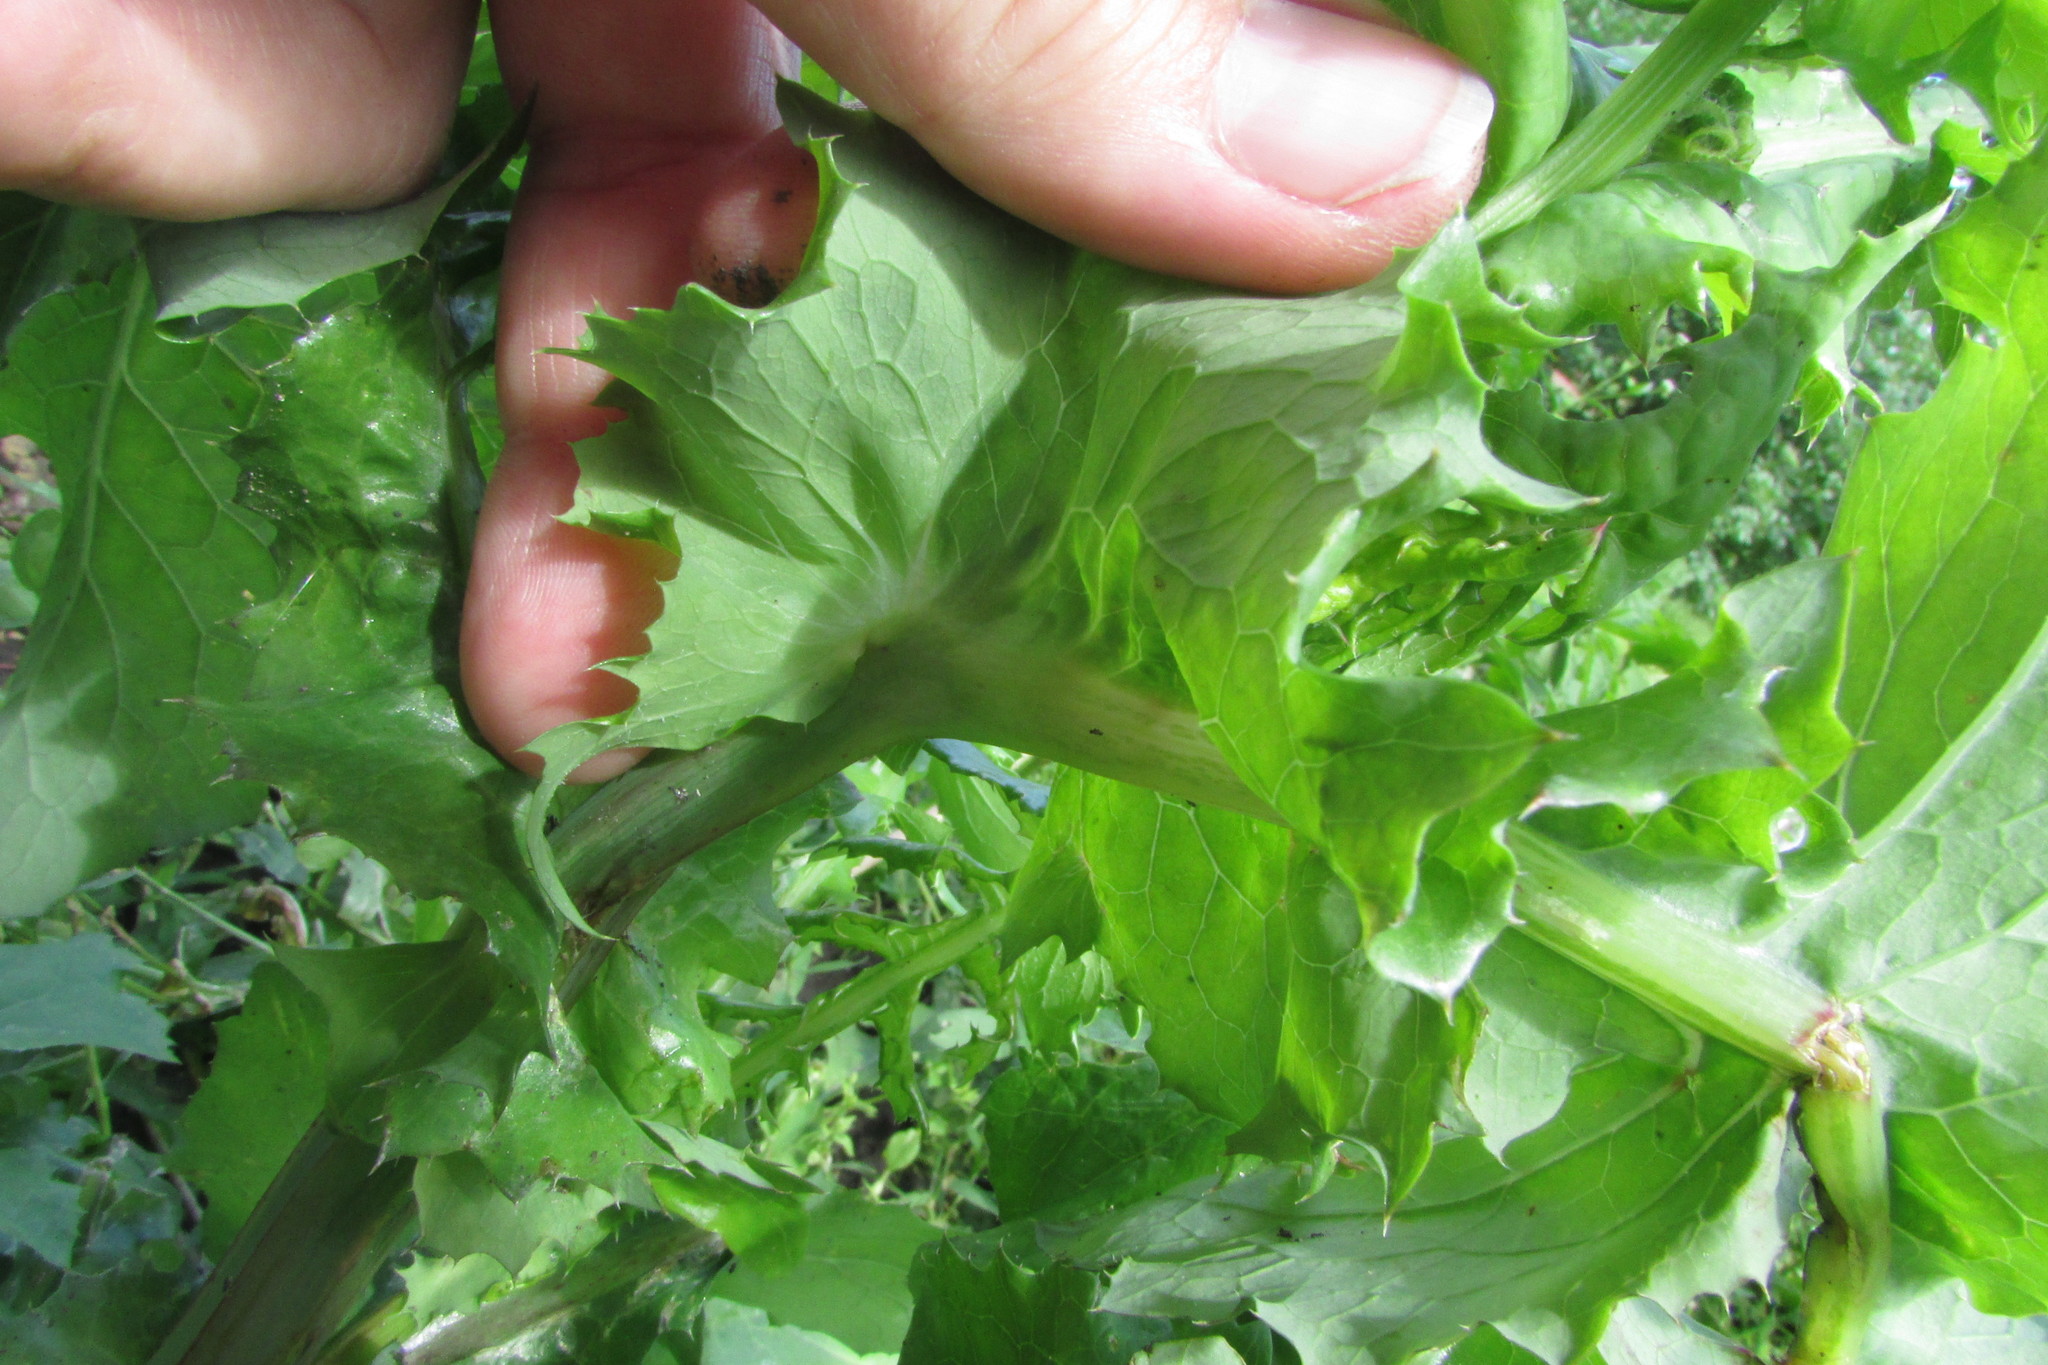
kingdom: Plantae
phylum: Tracheophyta
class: Magnoliopsida
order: Asterales
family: Asteraceae
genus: Sonchus
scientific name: Sonchus oleraceus
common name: Common sowthistle
